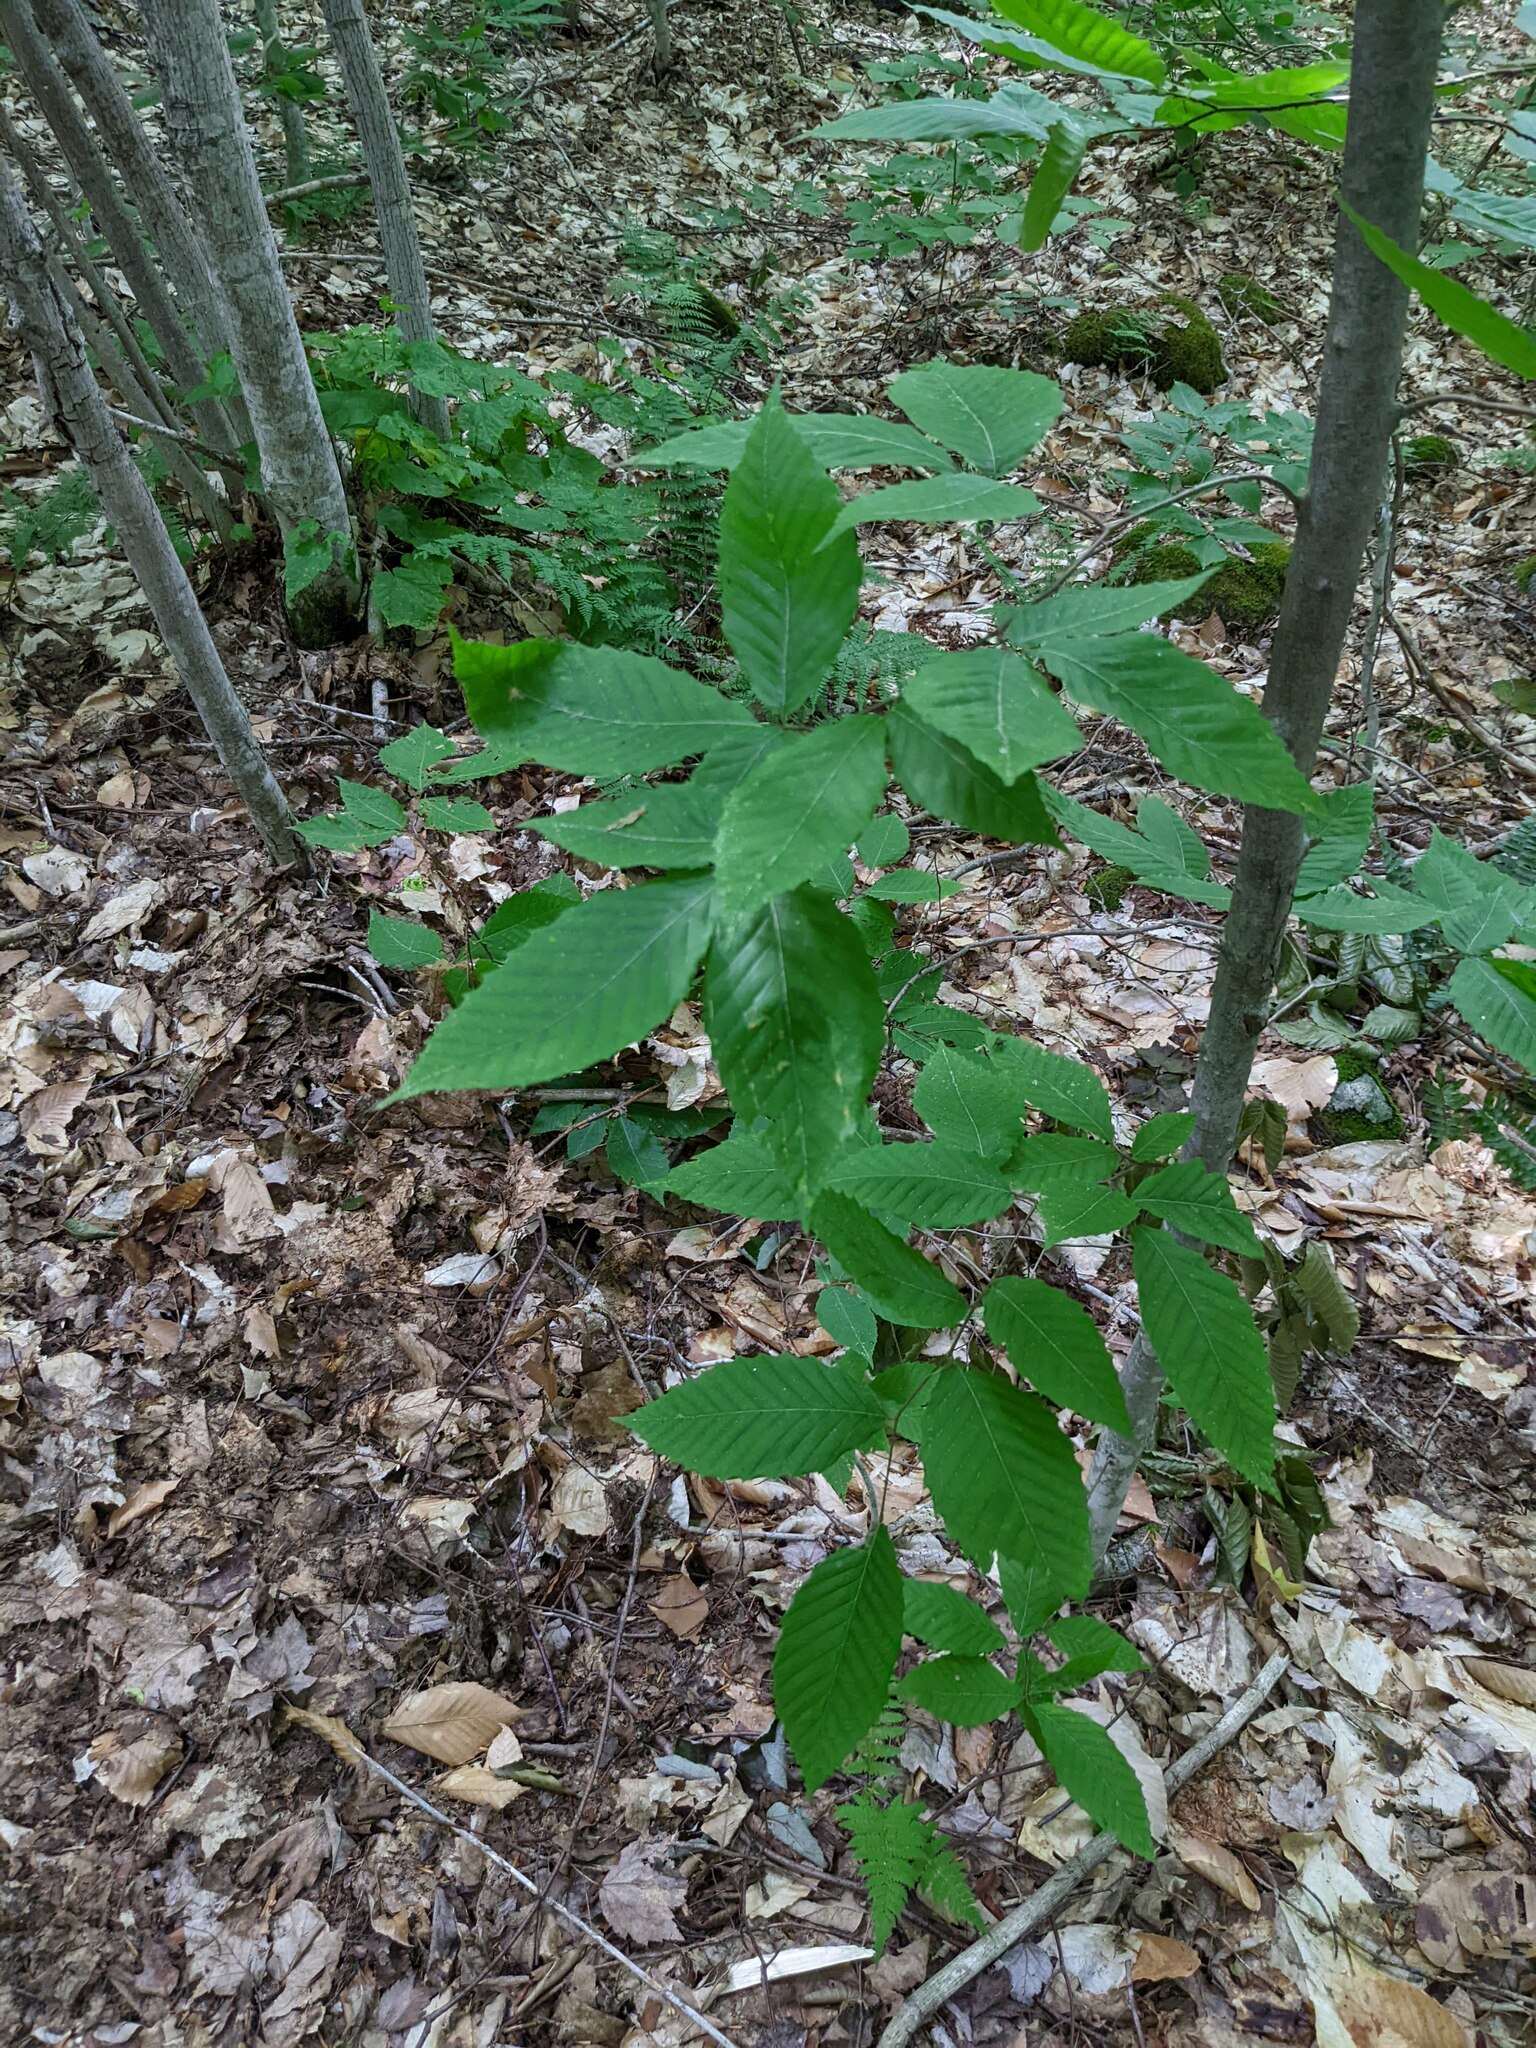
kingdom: Plantae
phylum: Tracheophyta
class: Magnoliopsida
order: Fagales
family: Fagaceae
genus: Fagus
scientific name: Fagus grandifolia
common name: American beech
